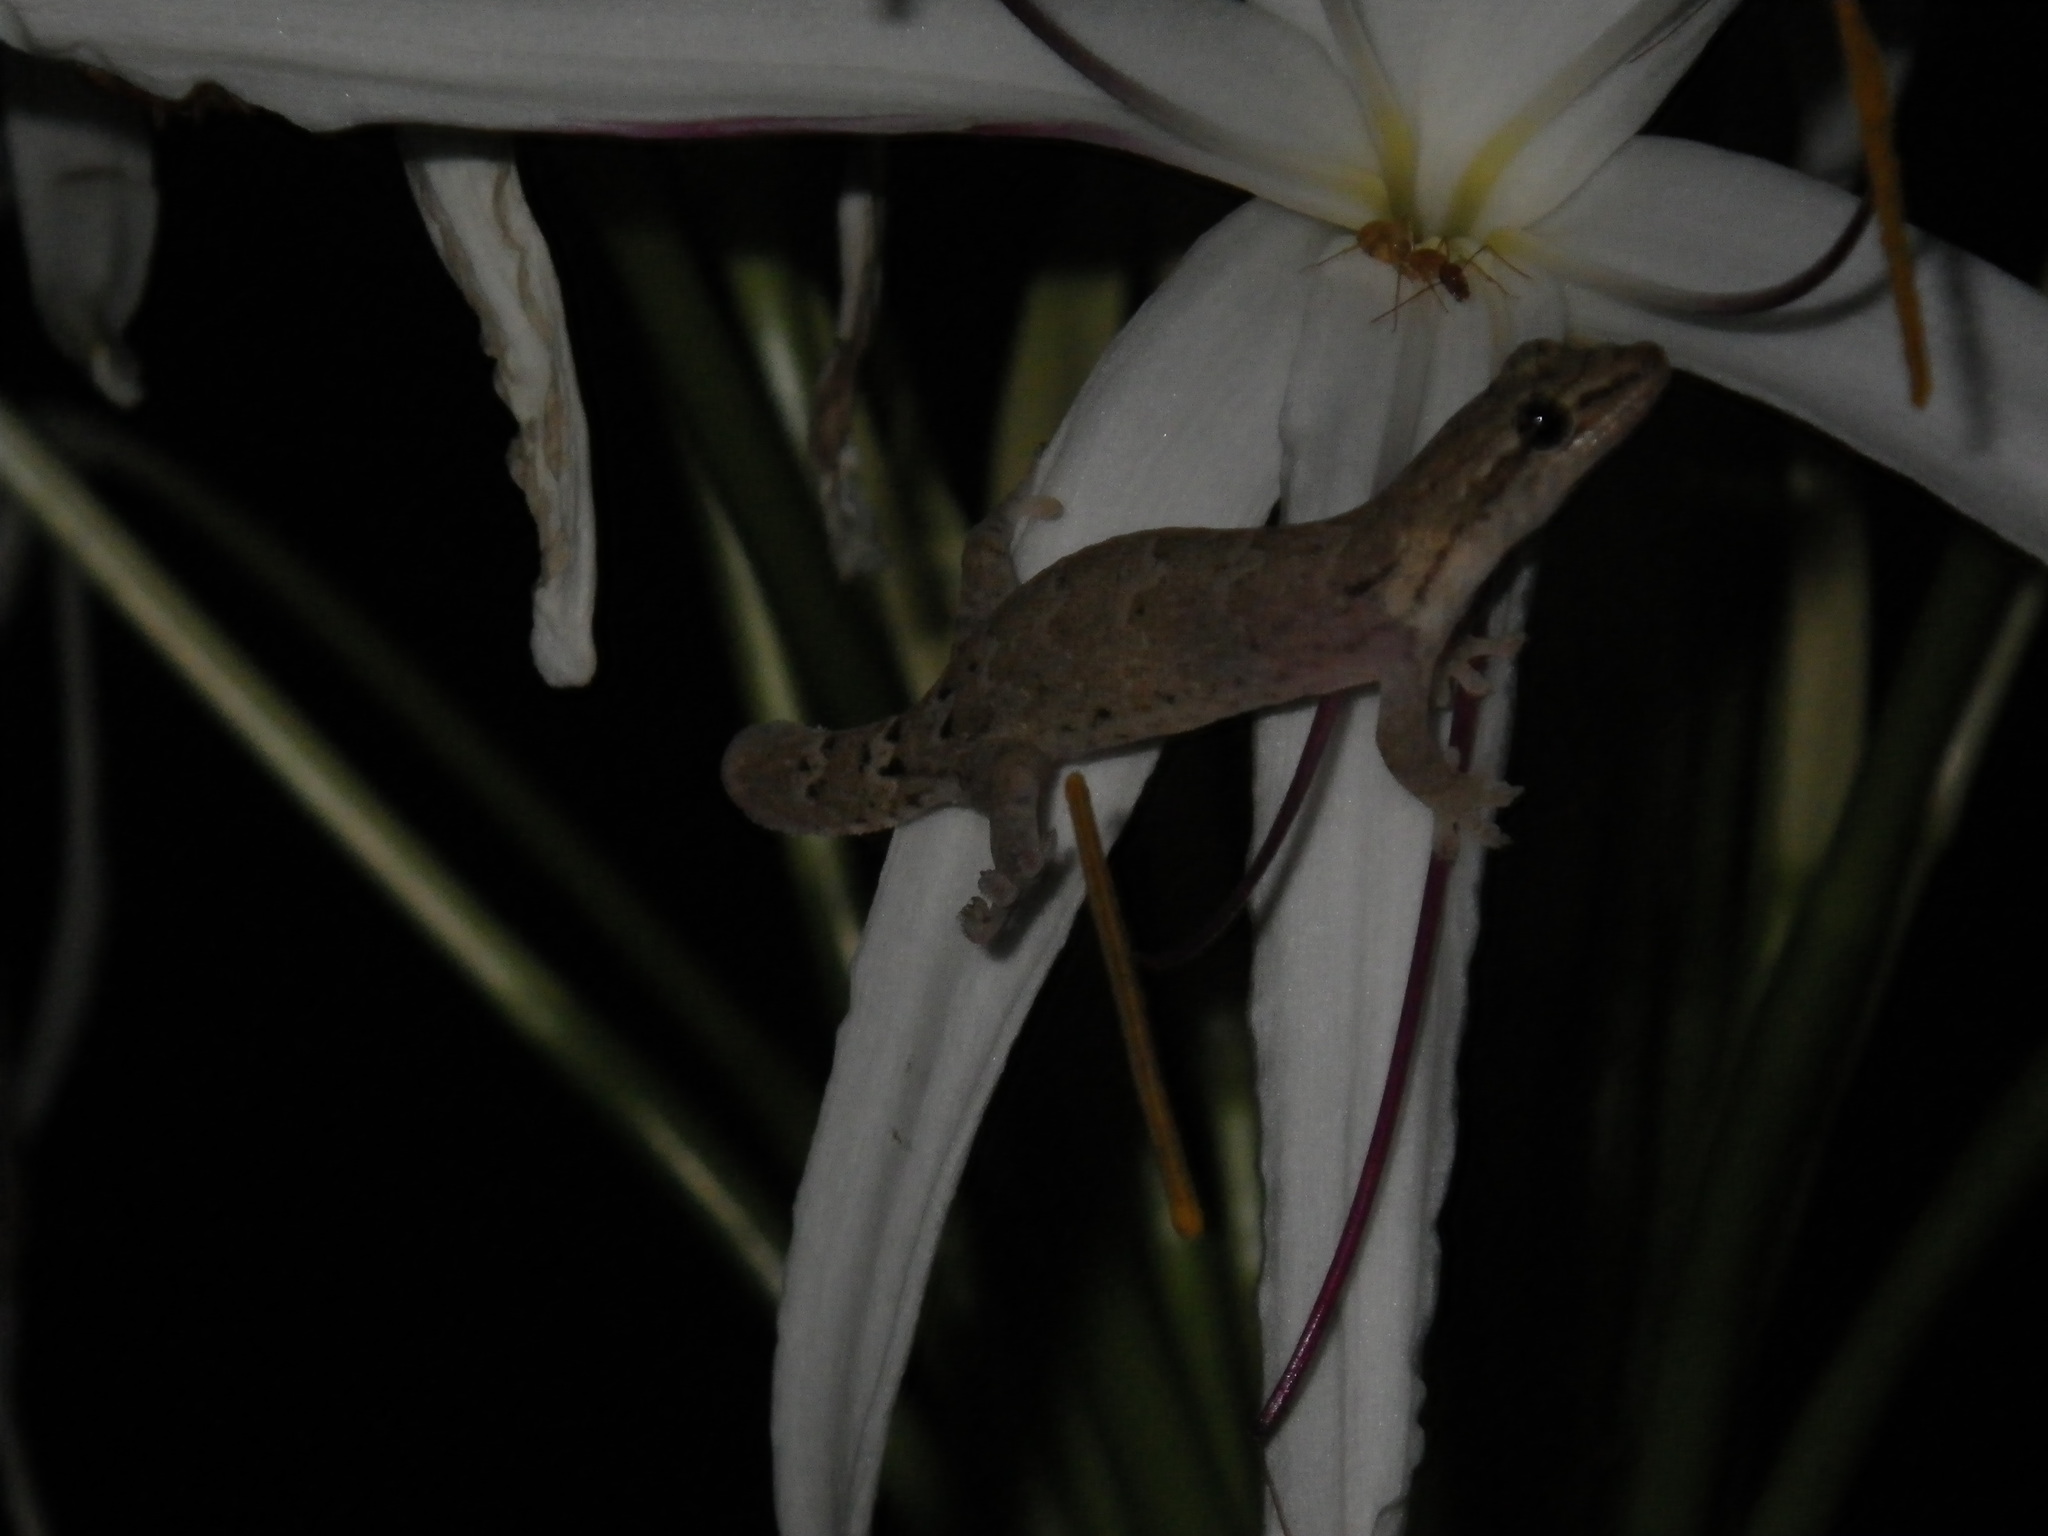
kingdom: Animalia
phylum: Chordata
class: Squamata
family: Gekkonidae
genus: Lepidodactylus
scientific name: Lepidodactylus lugubris
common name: Mourning gecko
